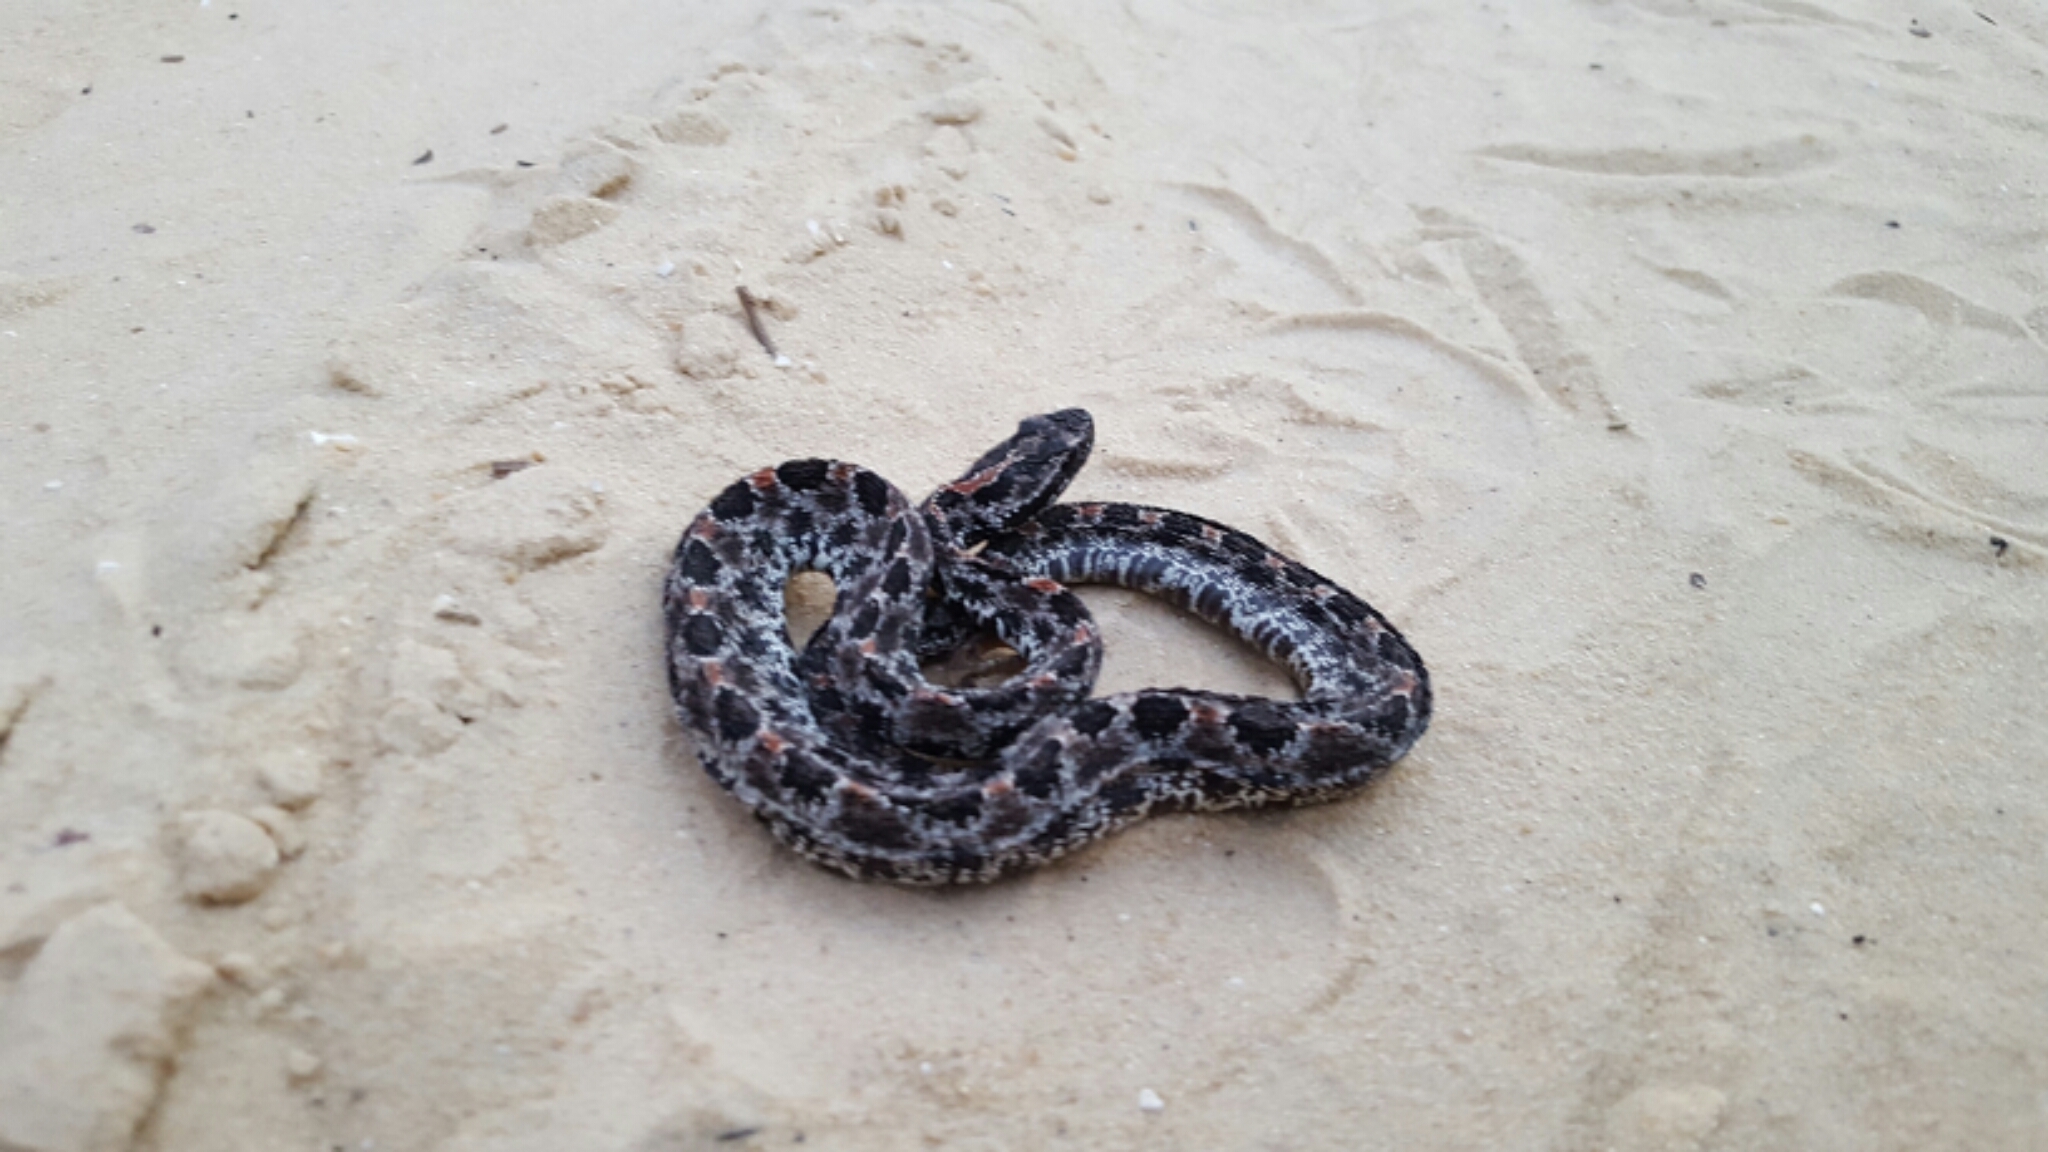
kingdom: Animalia
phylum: Chordata
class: Squamata
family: Viperidae
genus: Sistrurus
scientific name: Sistrurus miliarius
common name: Pygmy rattlesnake
